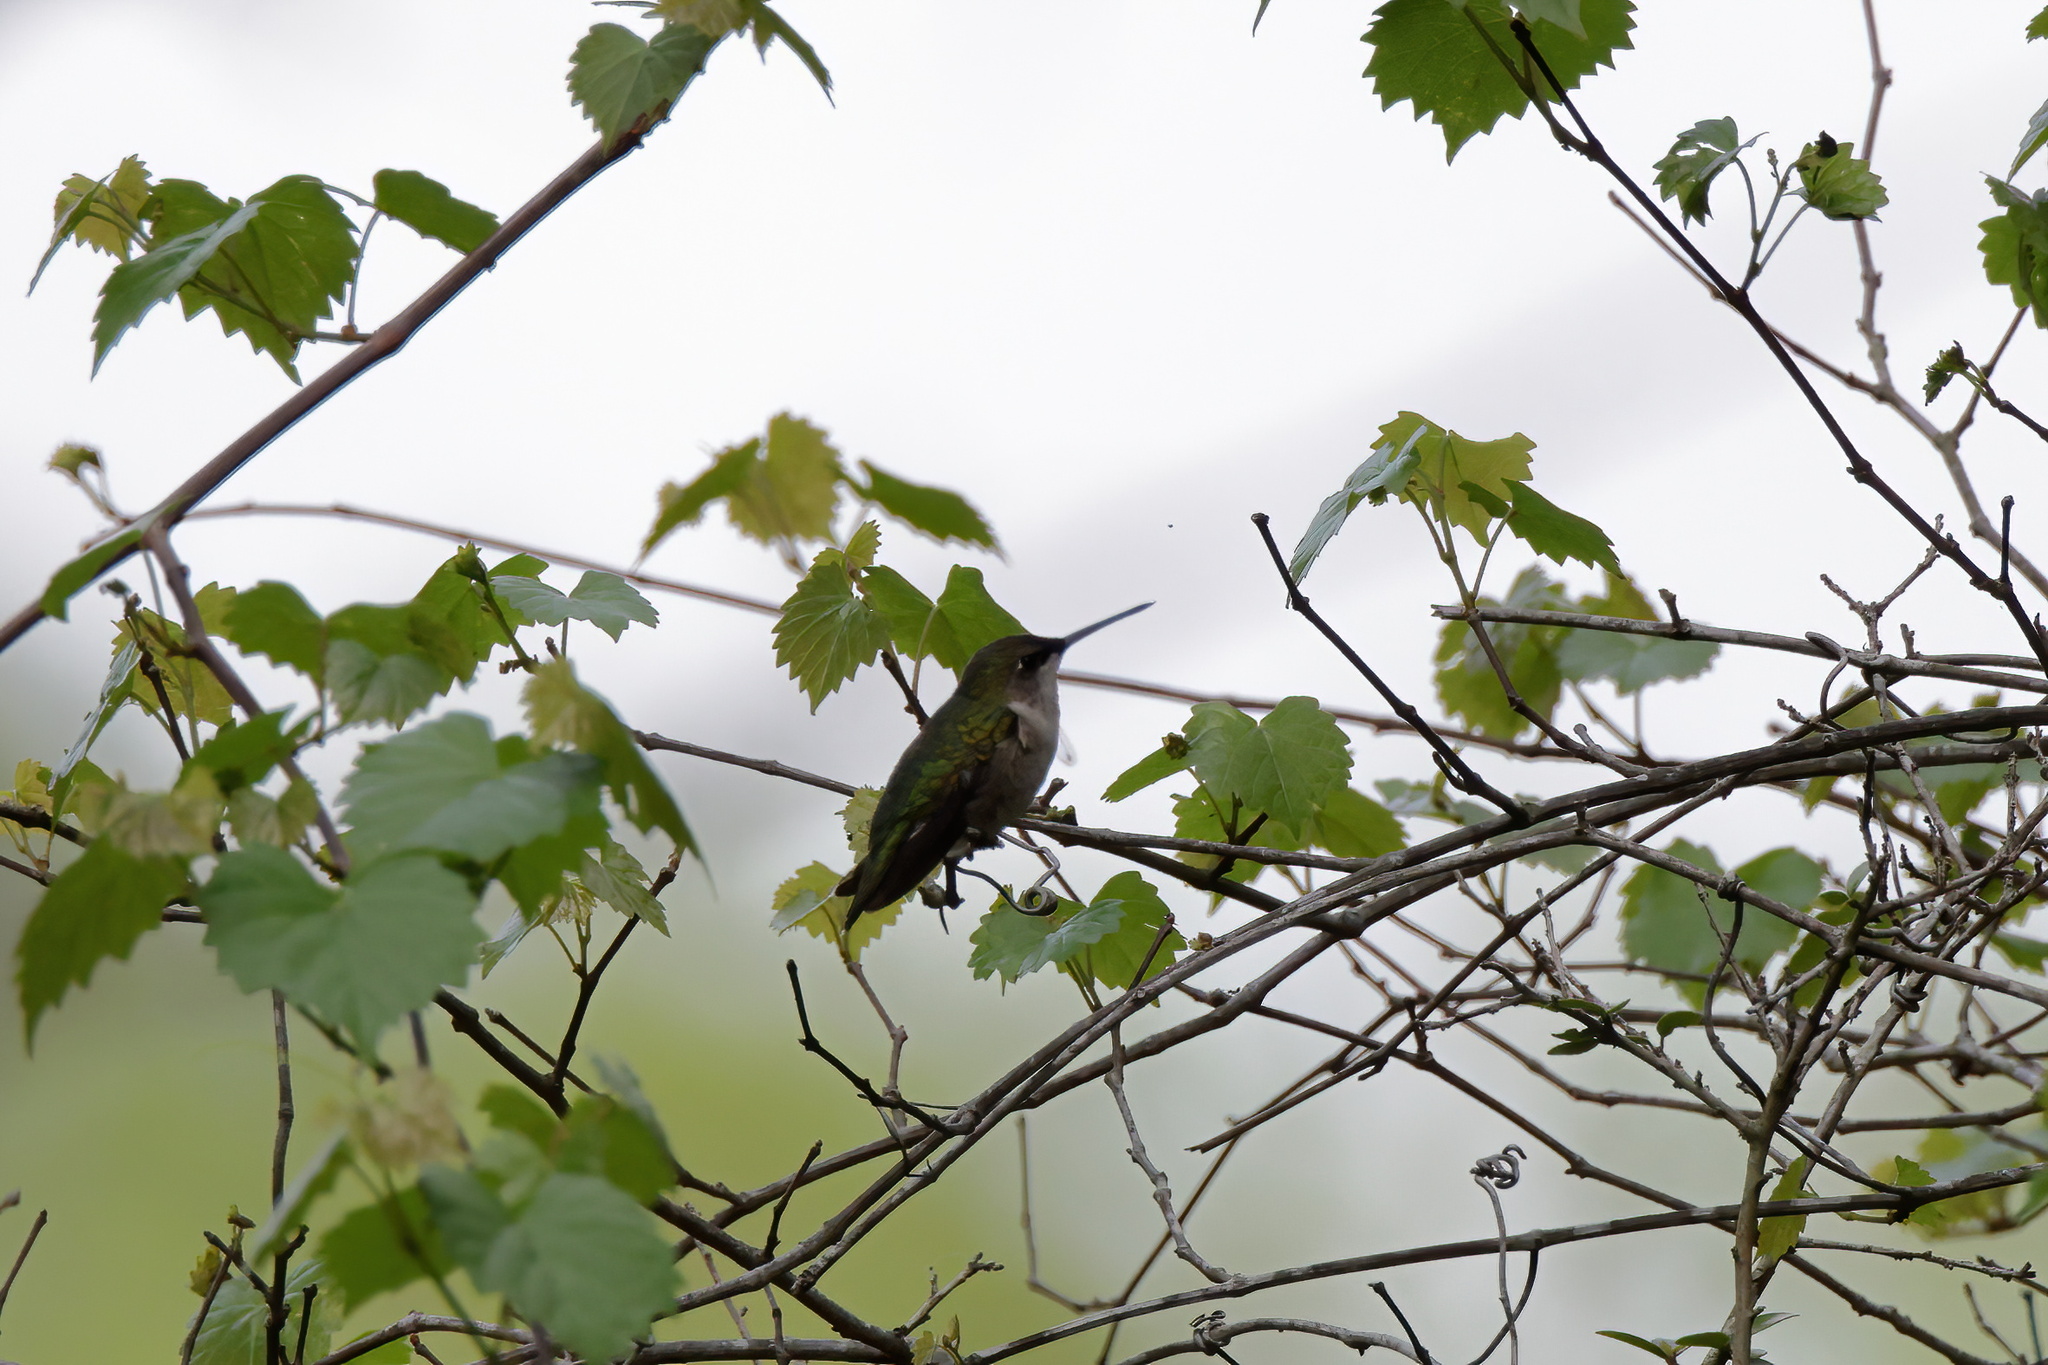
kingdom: Animalia
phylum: Chordata
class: Aves
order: Apodiformes
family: Trochilidae
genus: Archilochus
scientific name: Archilochus colubris
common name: Ruby-throated hummingbird
